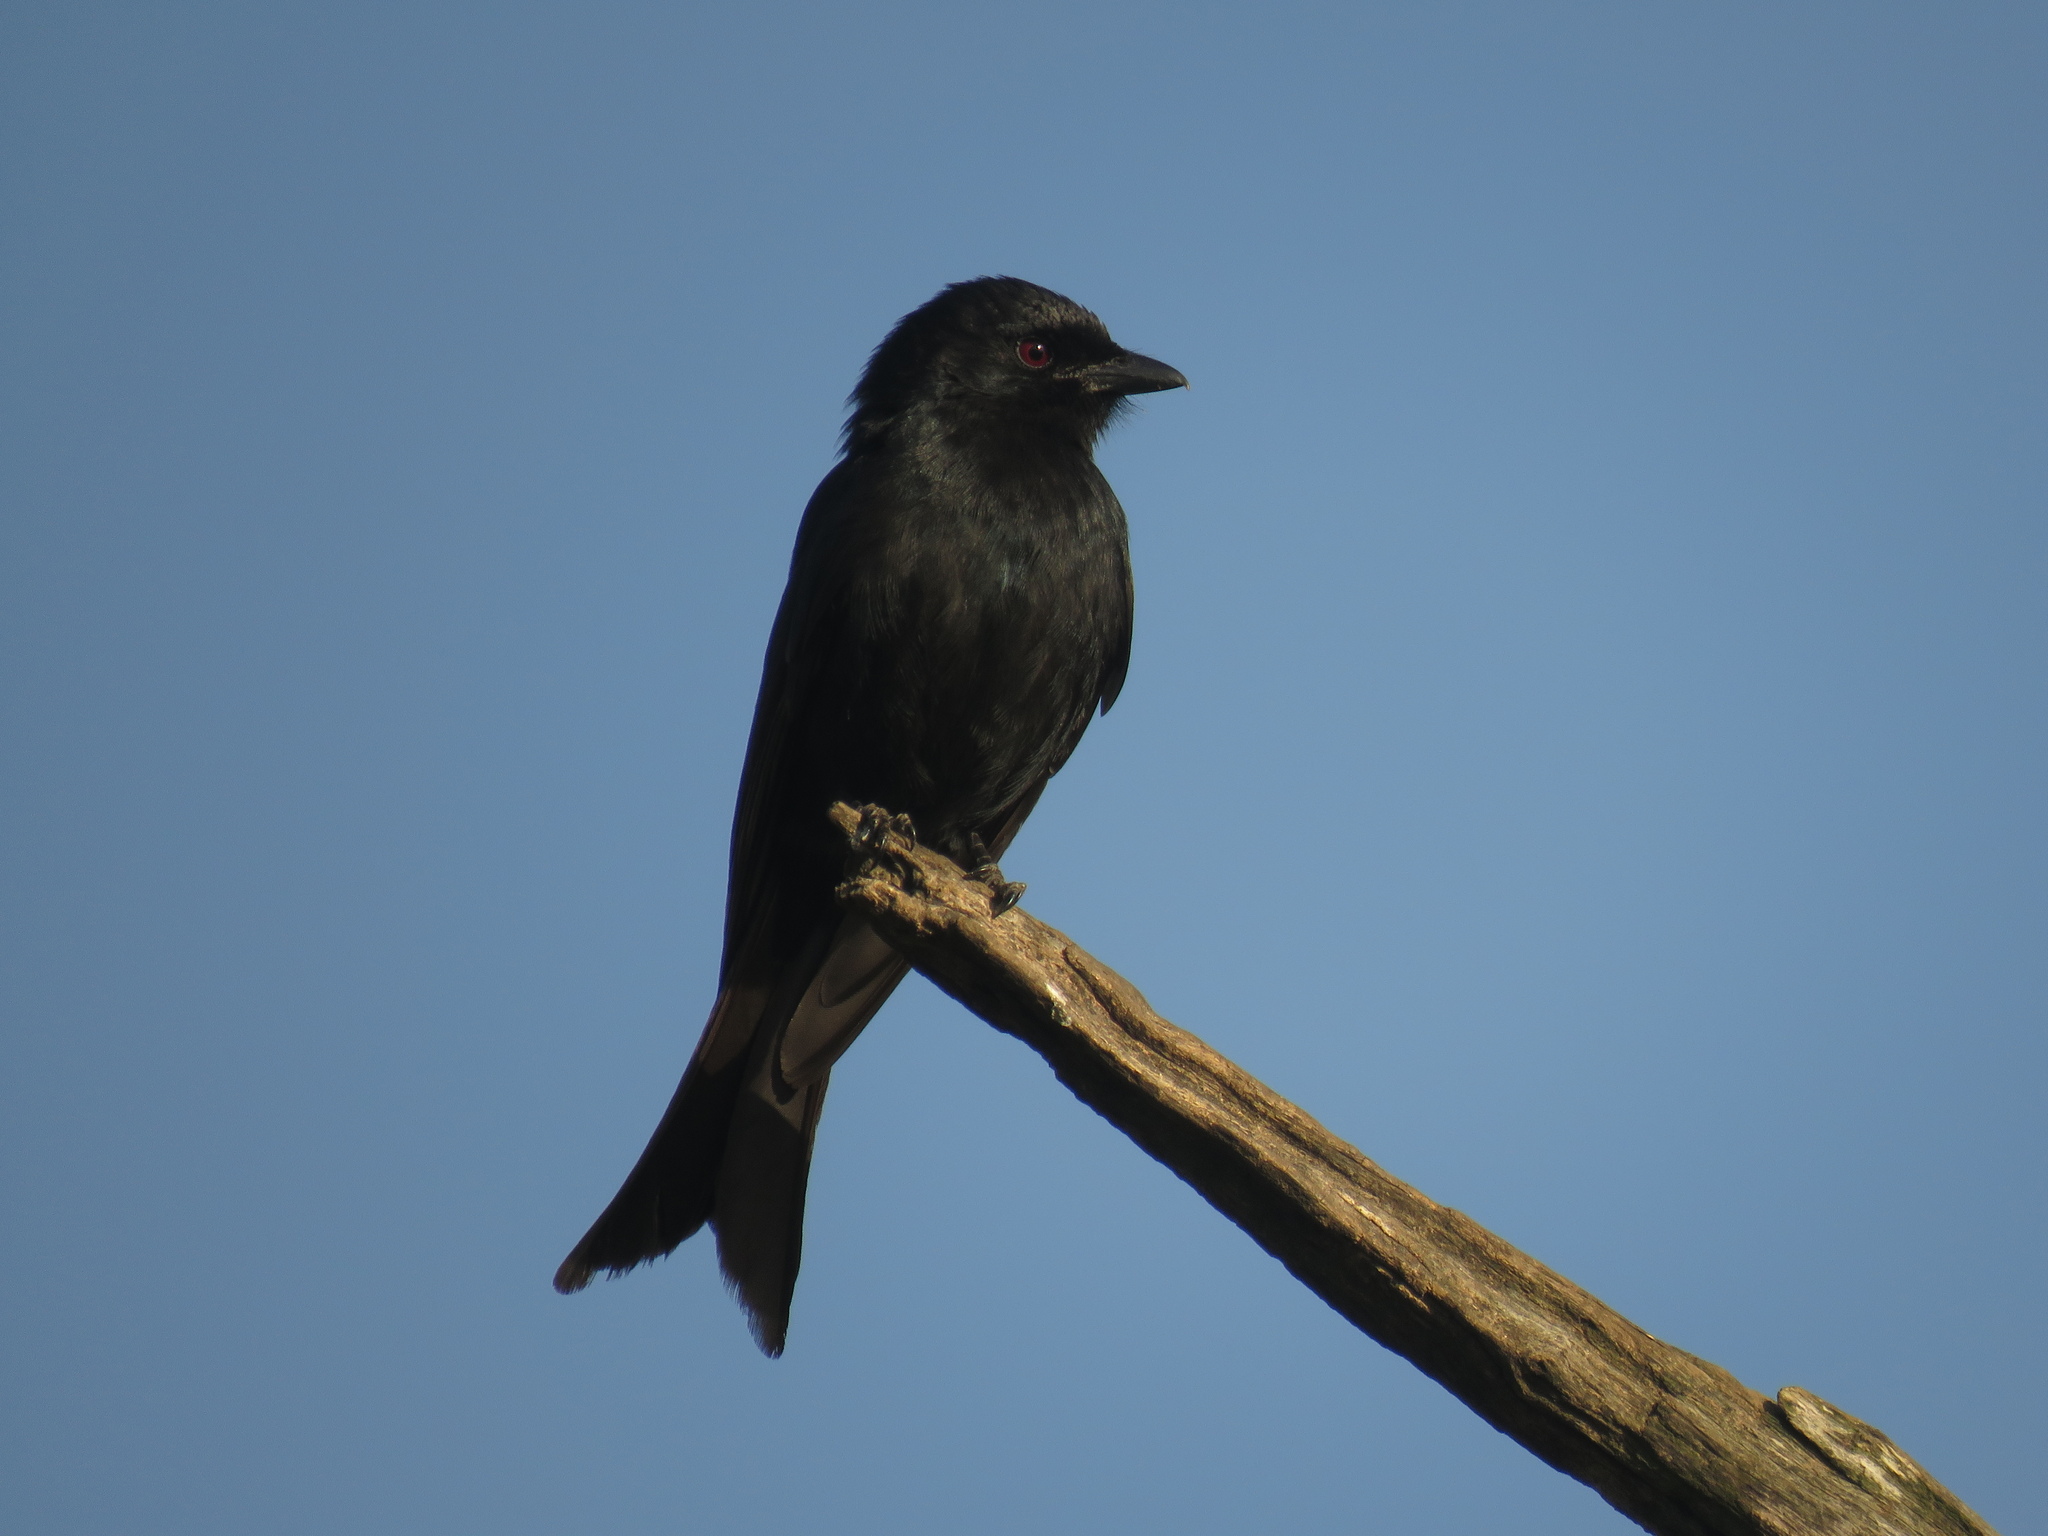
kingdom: Animalia
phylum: Chordata
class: Aves
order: Passeriformes
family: Dicruridae
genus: Dicrurus
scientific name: Dicrurus adsimilis
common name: Fork-tailed drongo
